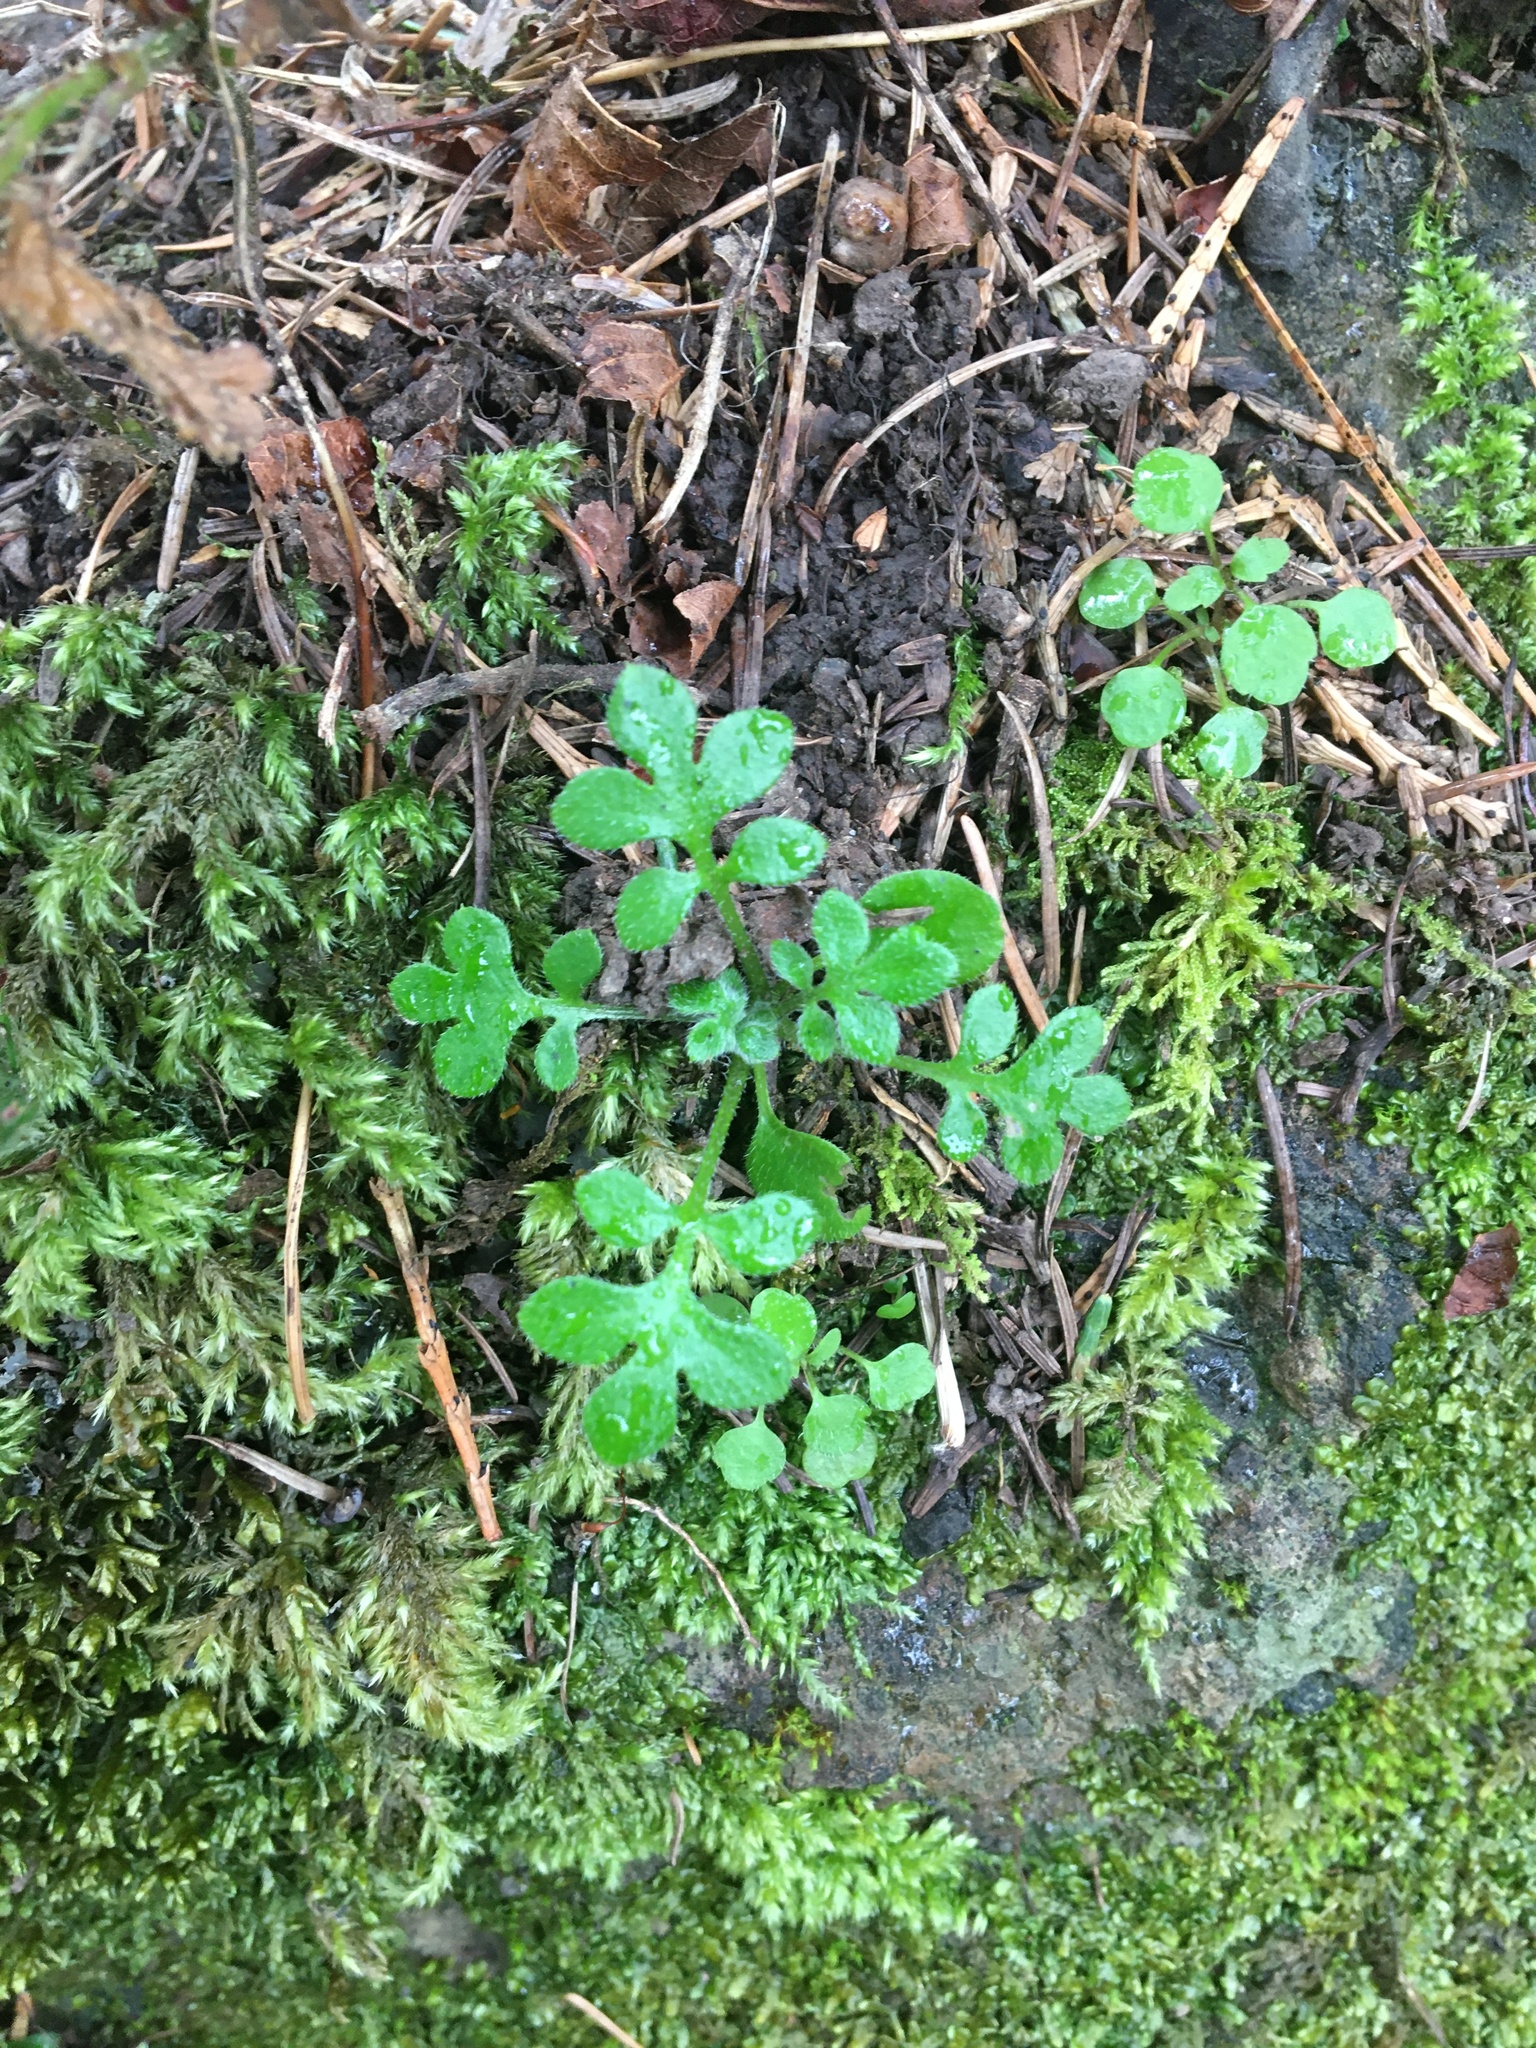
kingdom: Plantae
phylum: Tracheophyta
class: Magnoliopsida
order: Boraginales
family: Hydrophyllaceae
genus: Nemophila
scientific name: Nemophila parviflora
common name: Small-flowered baby-blue-eyes
